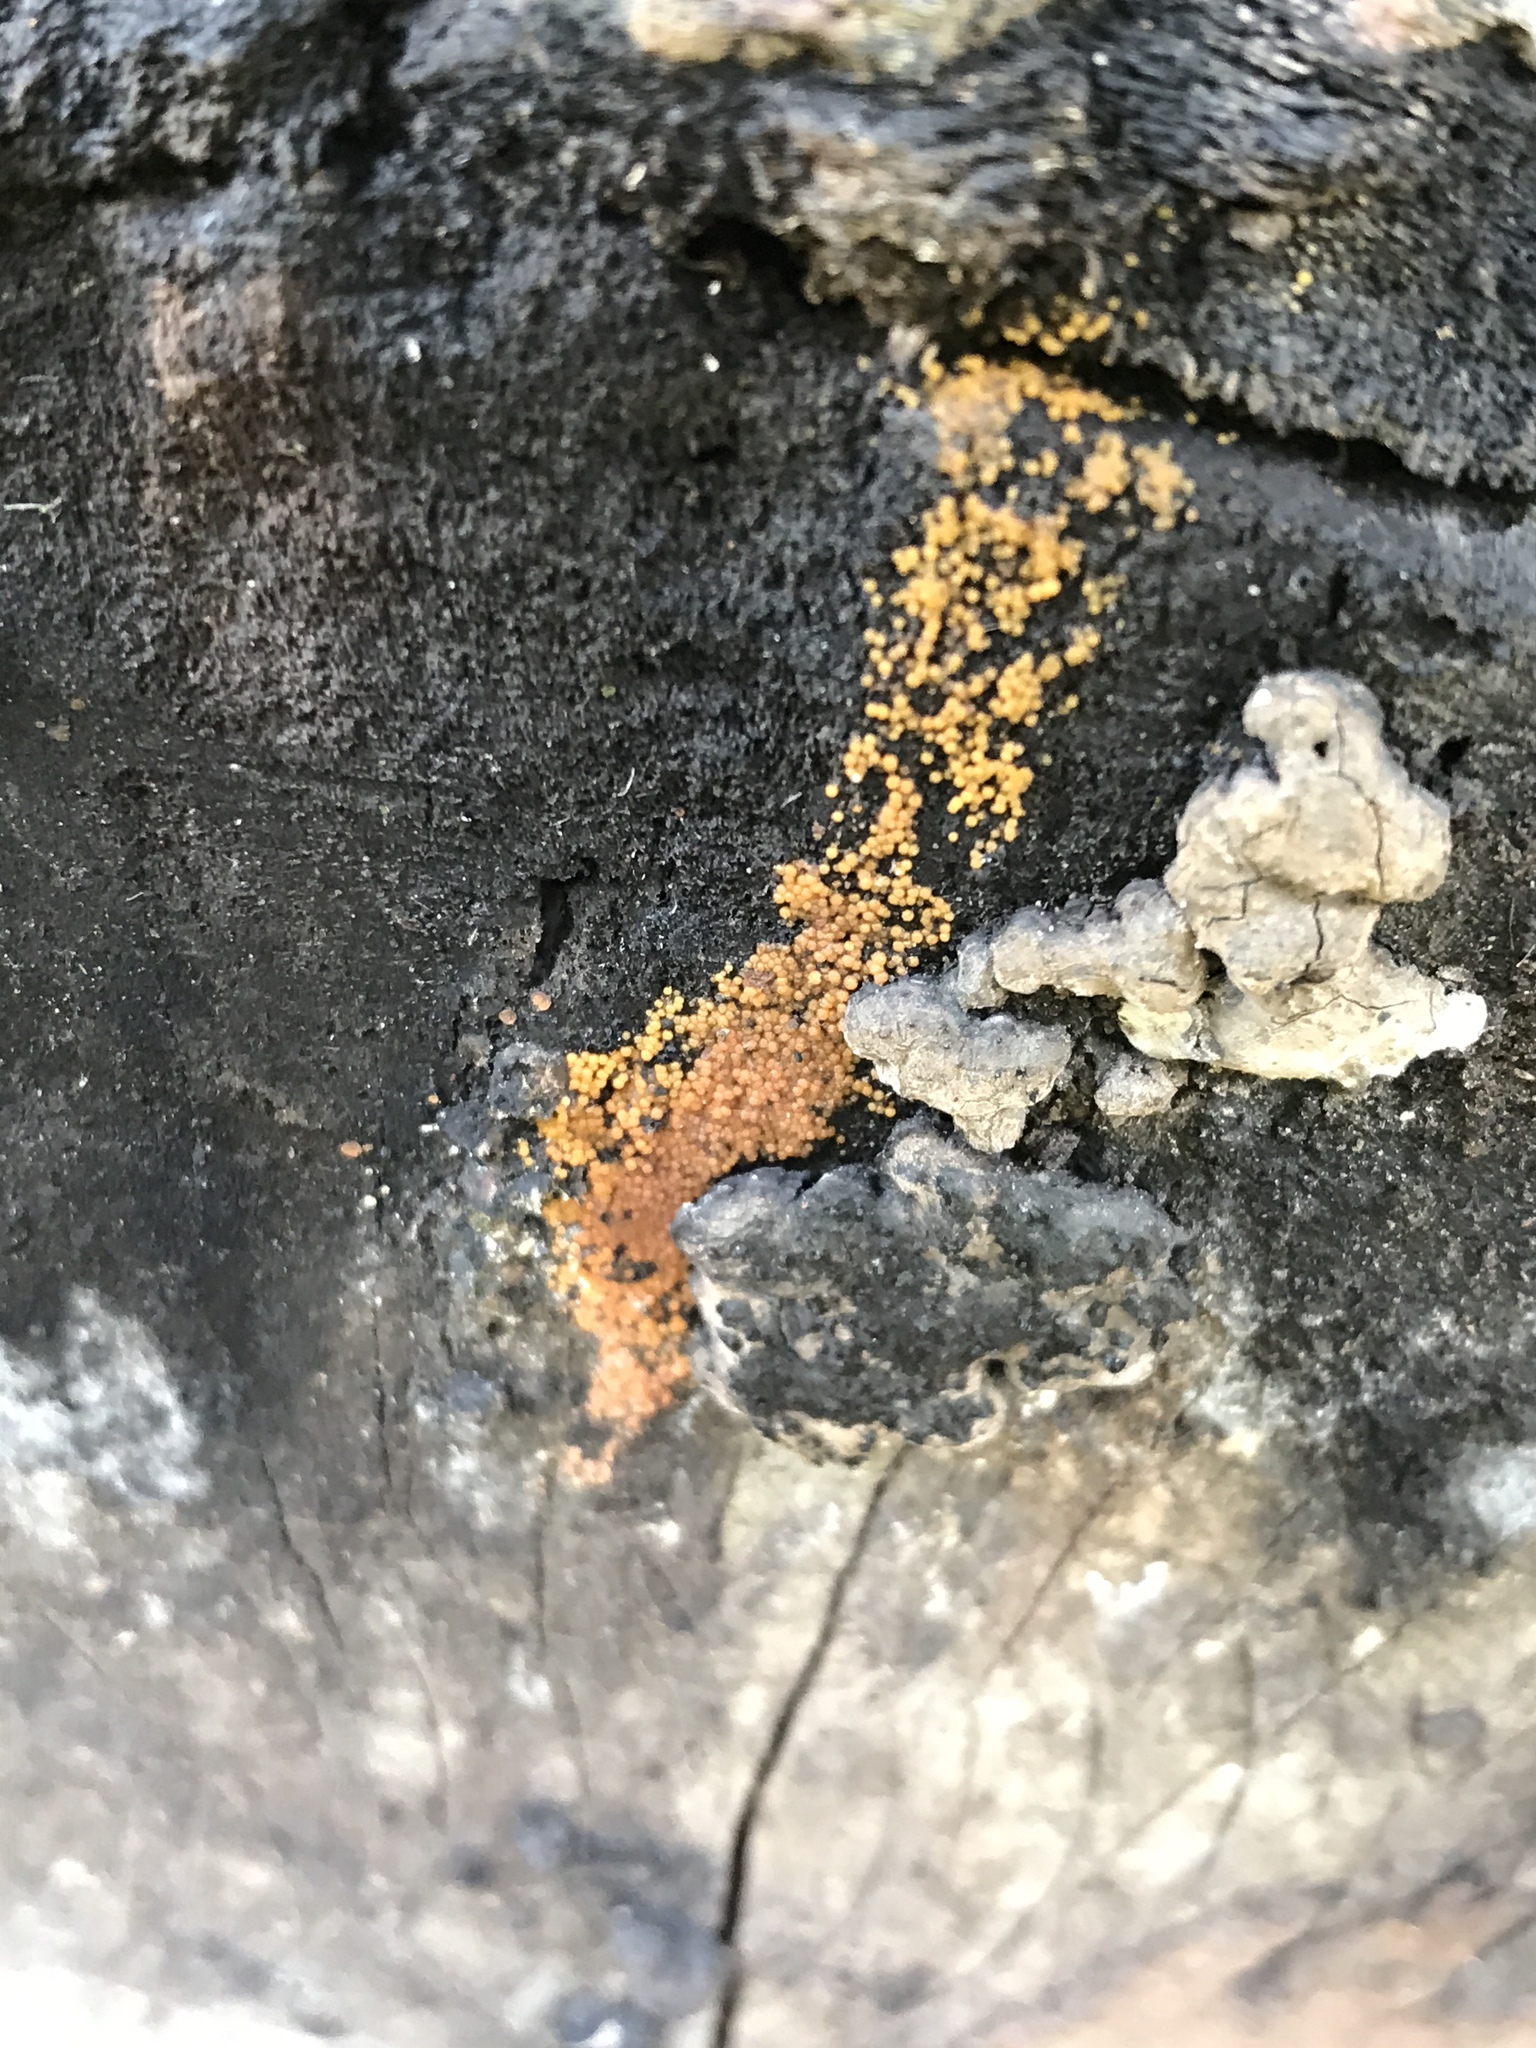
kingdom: Fungi
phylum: Ascomycota
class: Sordariomycetes
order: Hypocreales
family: Nectriaceae
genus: Hydropisphaera
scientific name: Hydropisphaera peziza
